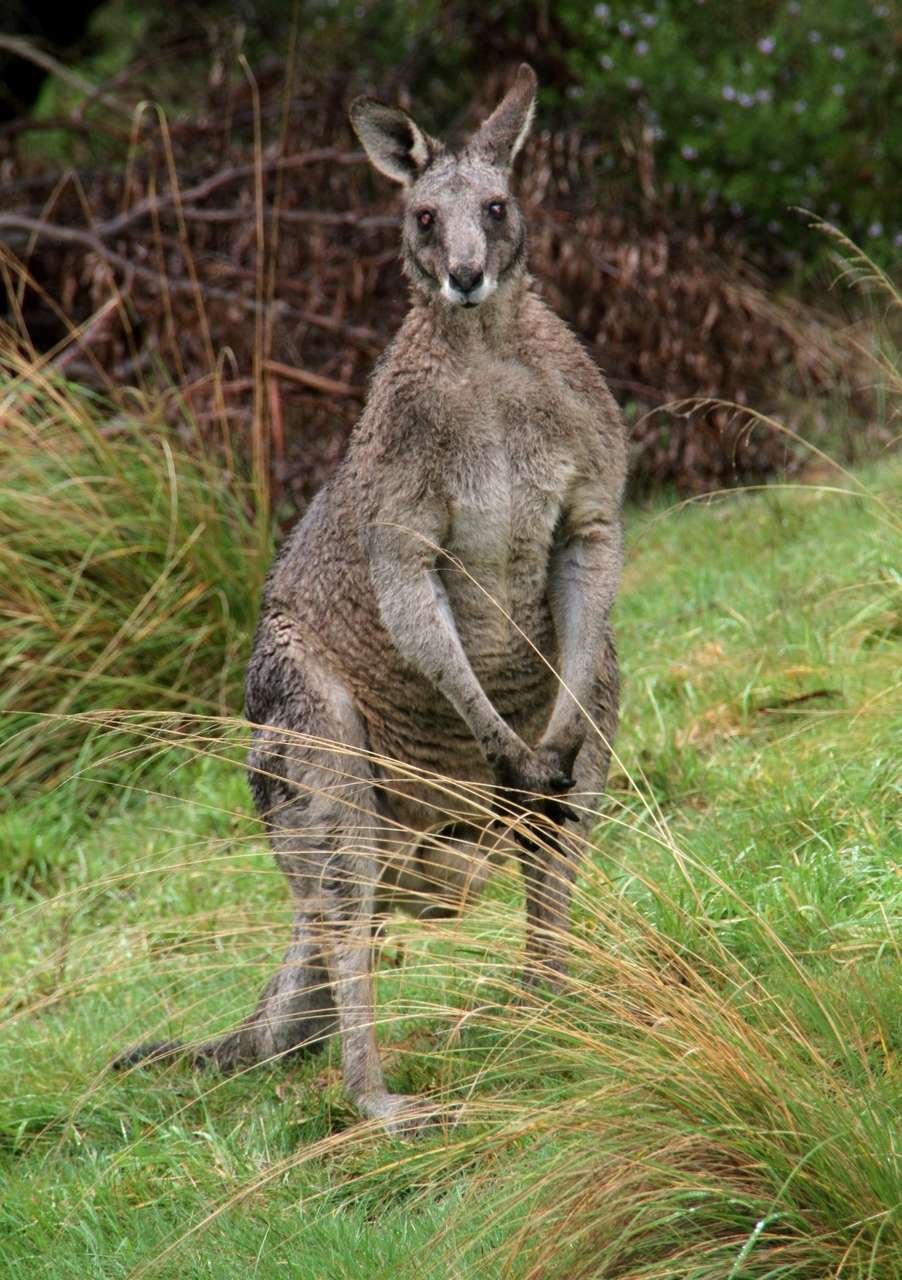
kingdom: Animalia
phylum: Chordata
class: Mammalia
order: Diprotodontia
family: Macropodidae
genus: Macropus
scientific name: Macropus giganteus
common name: Eastern grey kangaroo
